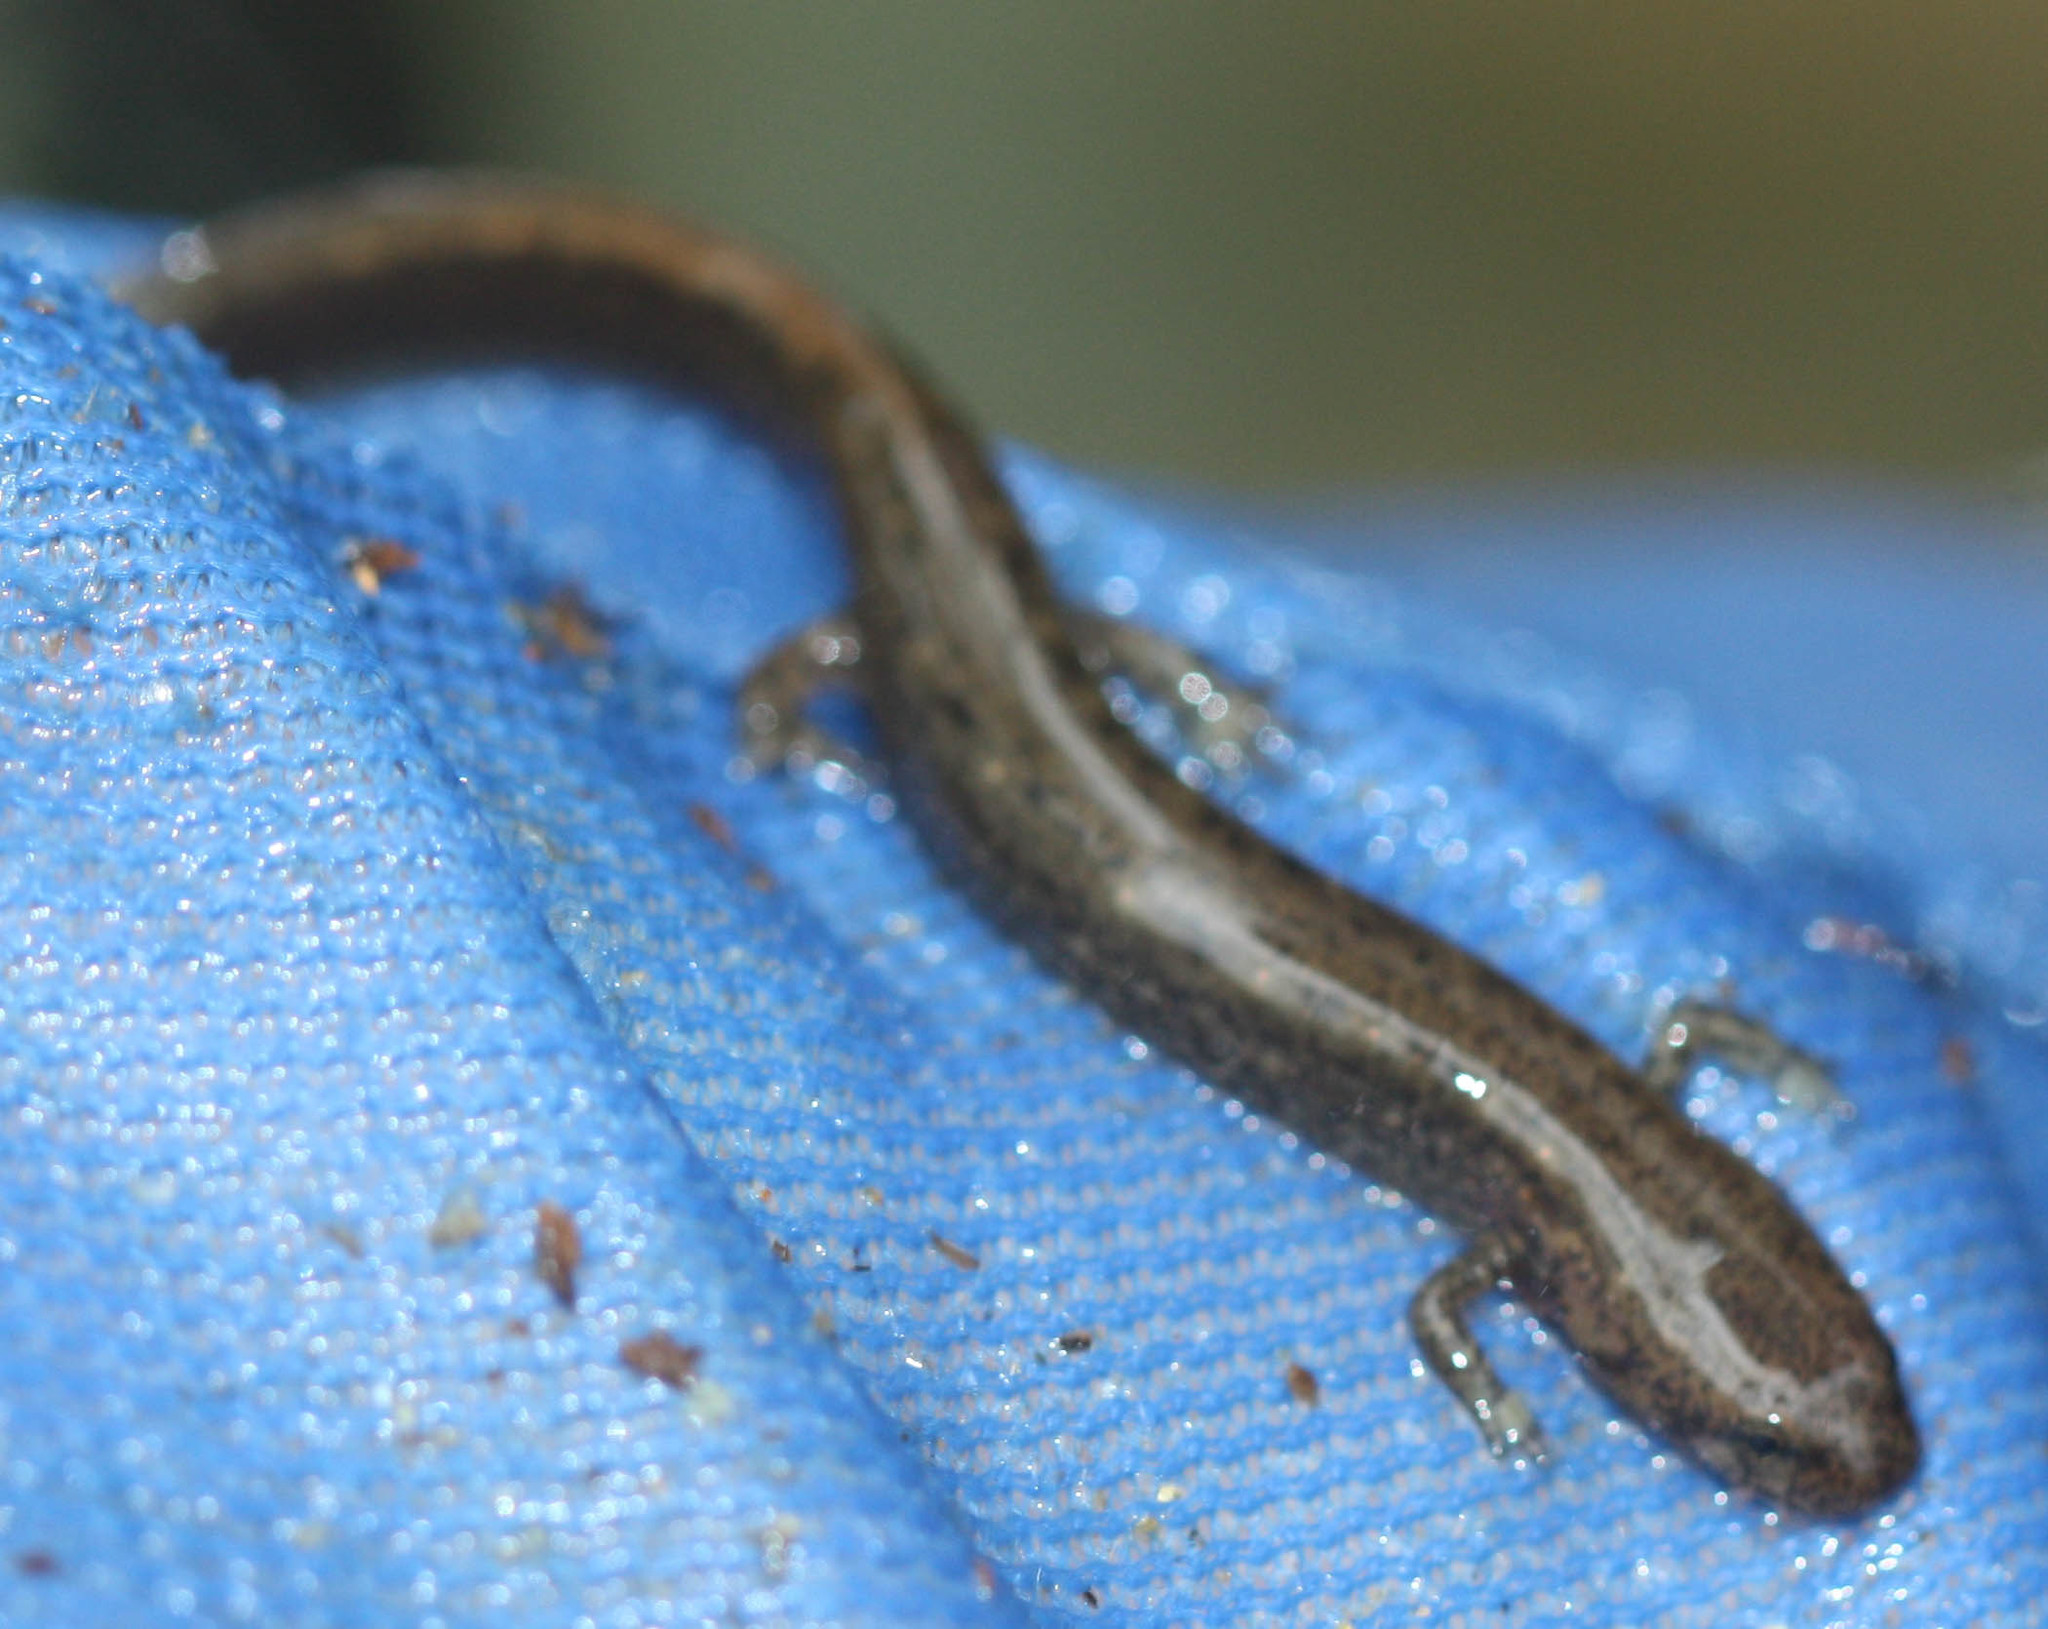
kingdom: Animalia
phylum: Chordata
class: Amphibia
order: Caudata
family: Plethodontidae
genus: Eurycea
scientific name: Eurycea bislineata
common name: Northern two-lined salamander
